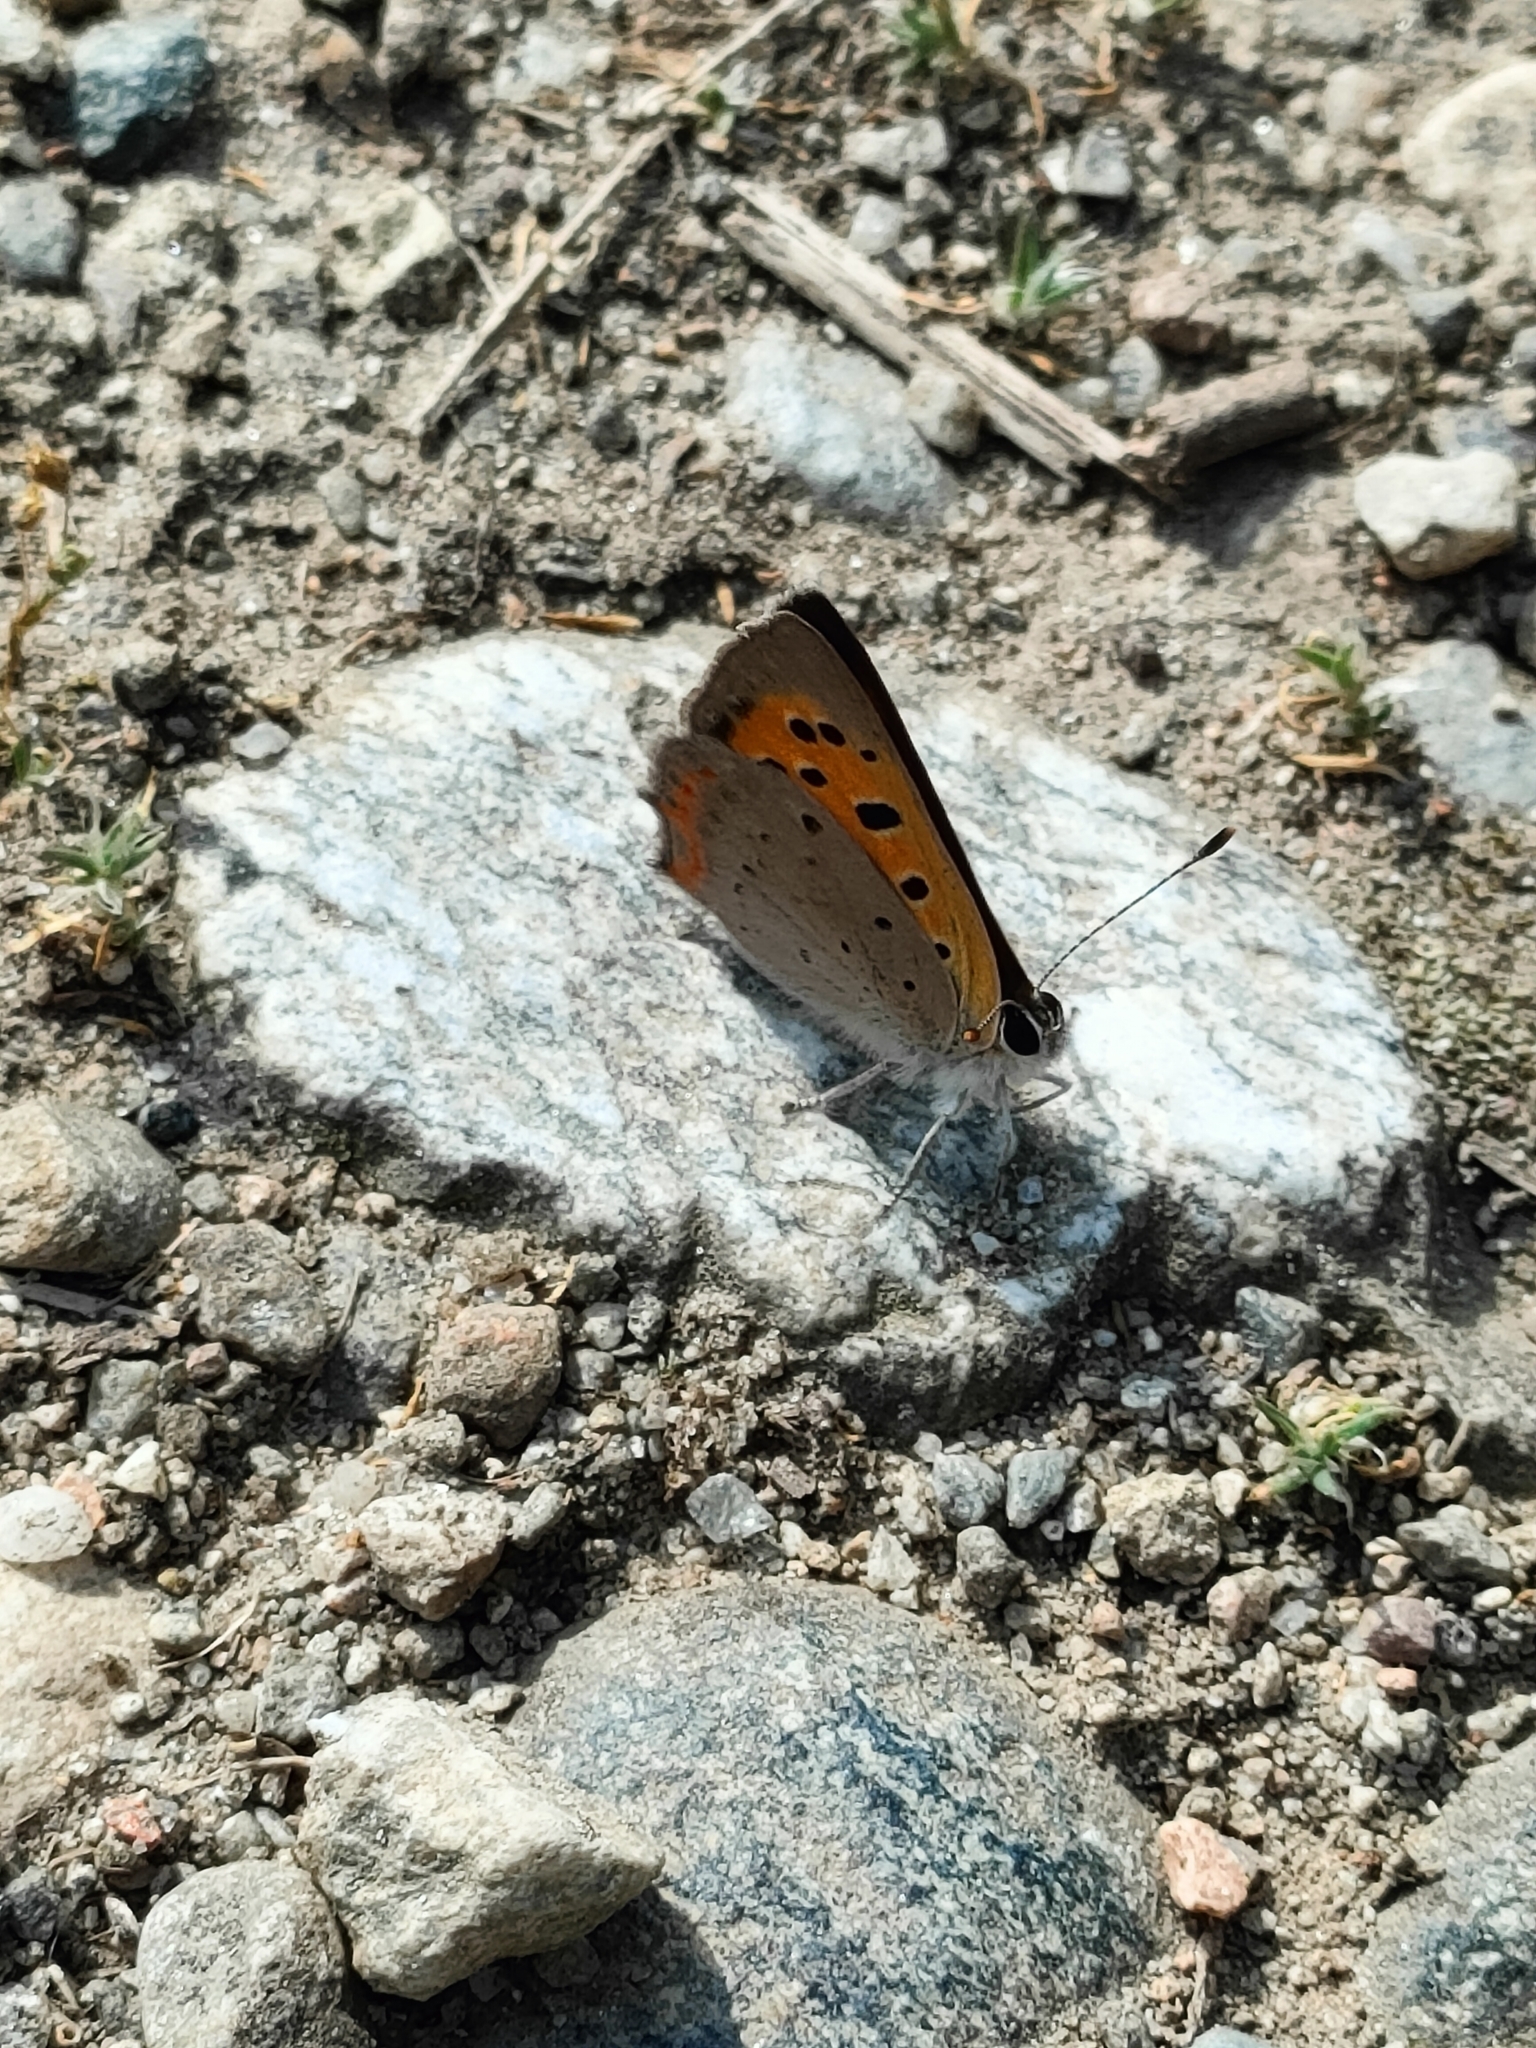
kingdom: Animalia
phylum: Arthropoda
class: Insecta
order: Lepidoptera
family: Lycaenidae
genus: Lycaena
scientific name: Lycaena phlaeas
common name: Small copper
